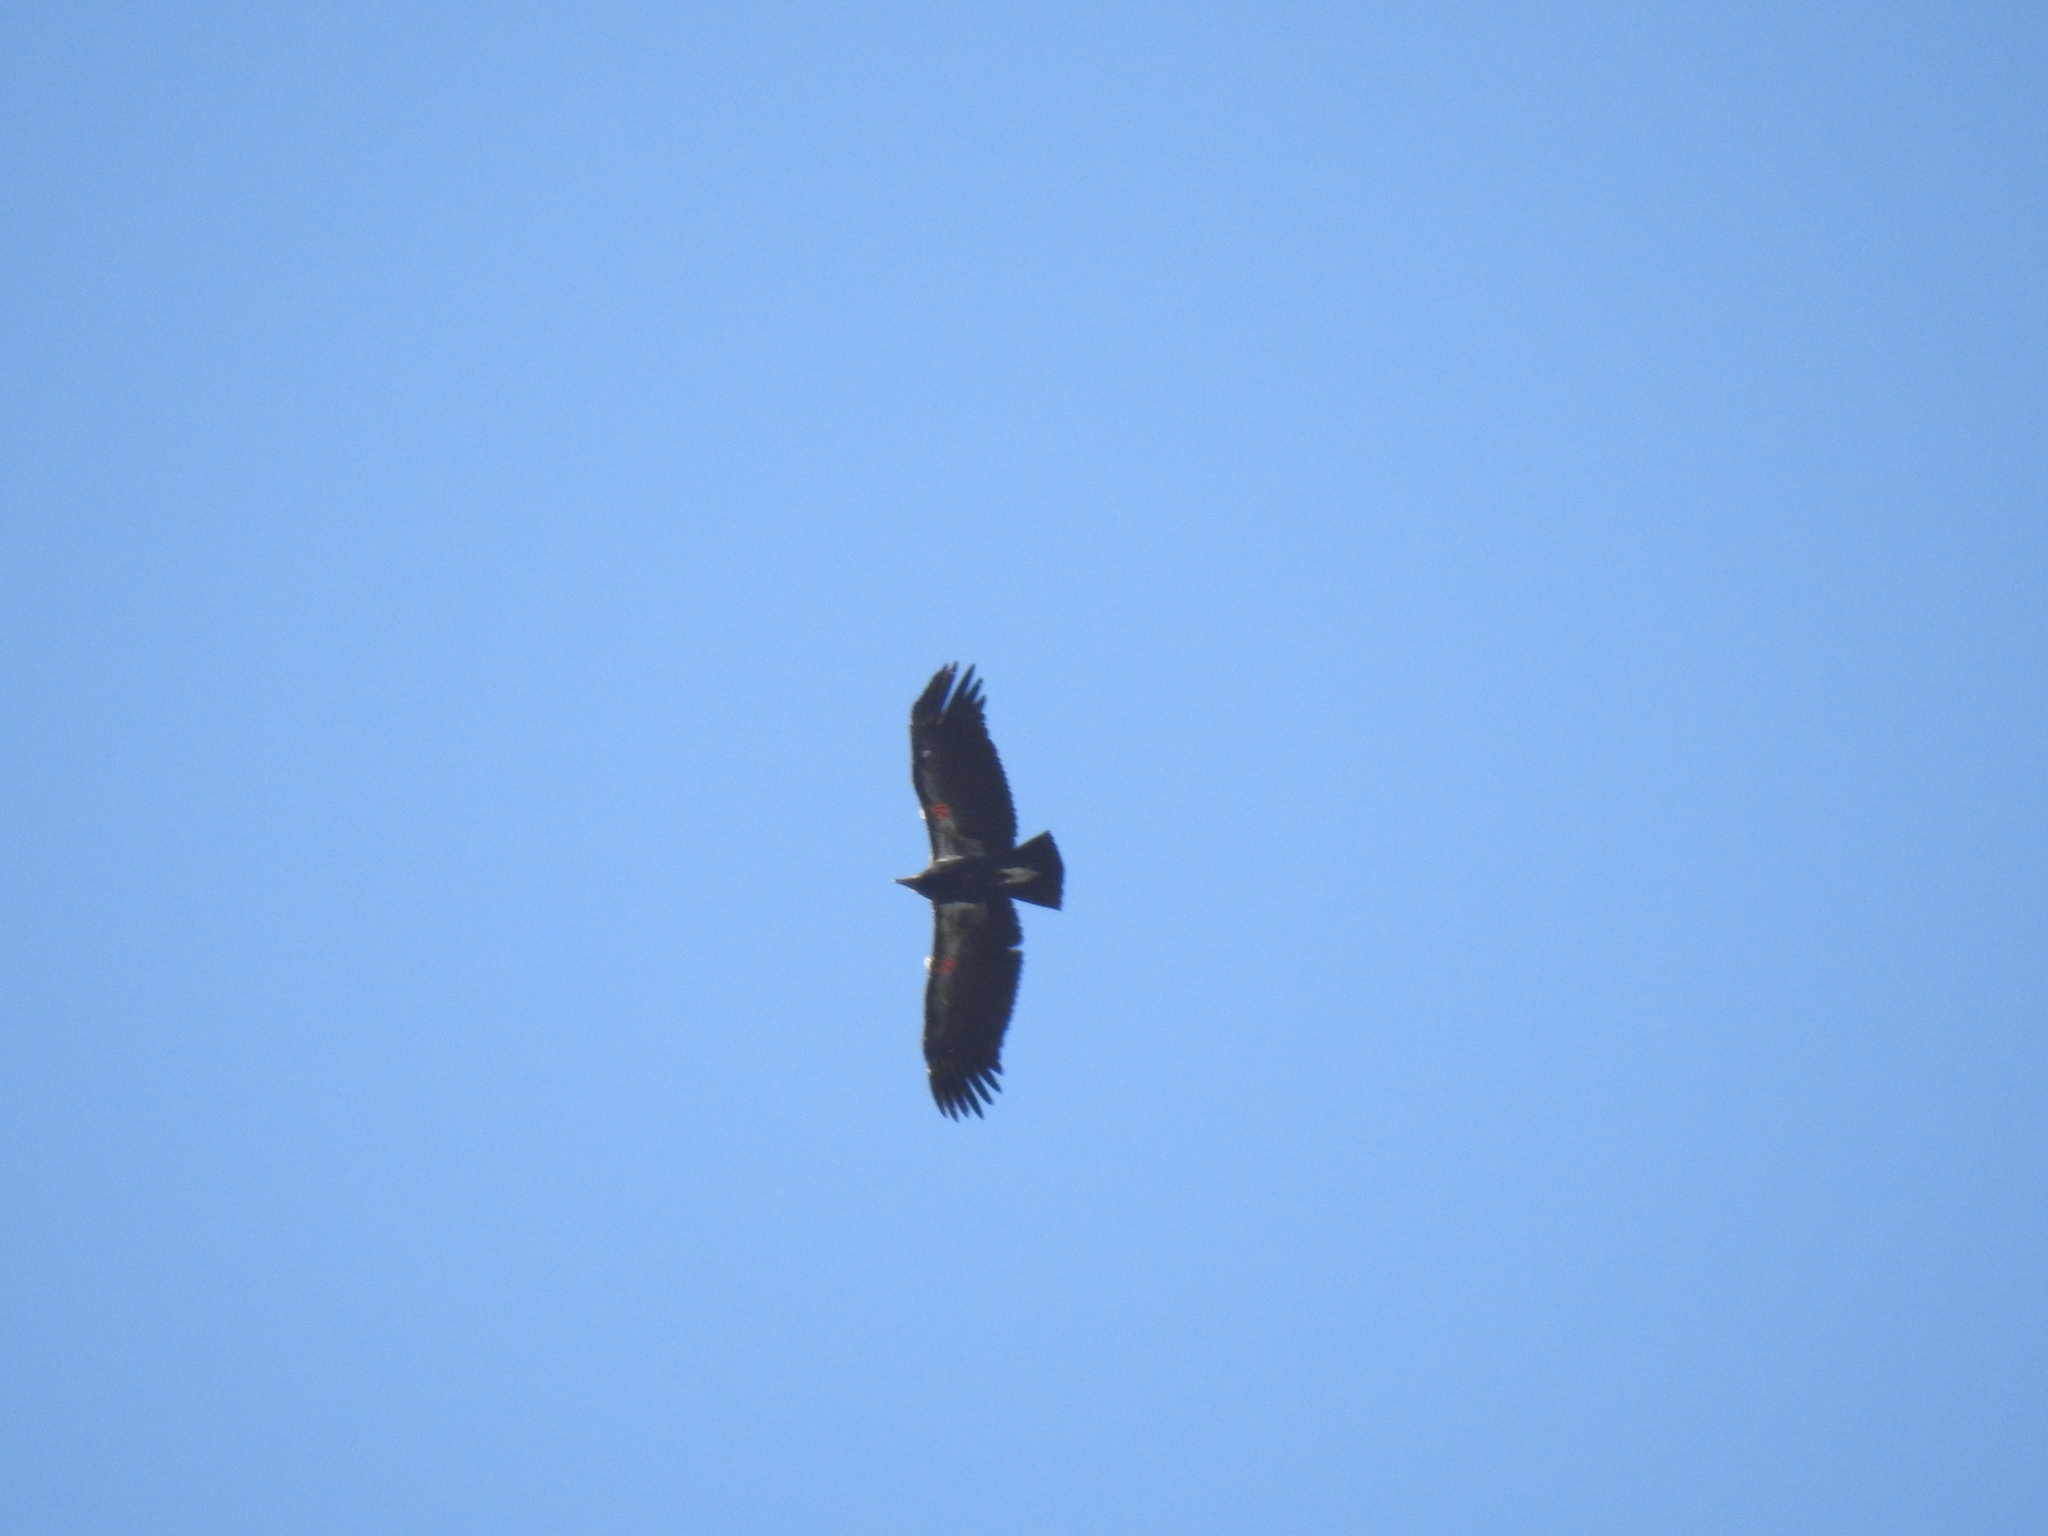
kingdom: Animalia
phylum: Chordata
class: Aves
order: Accipitriformes
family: Cathartidae
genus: Gymnogyps
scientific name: Gymnogyps californianus
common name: California condor
